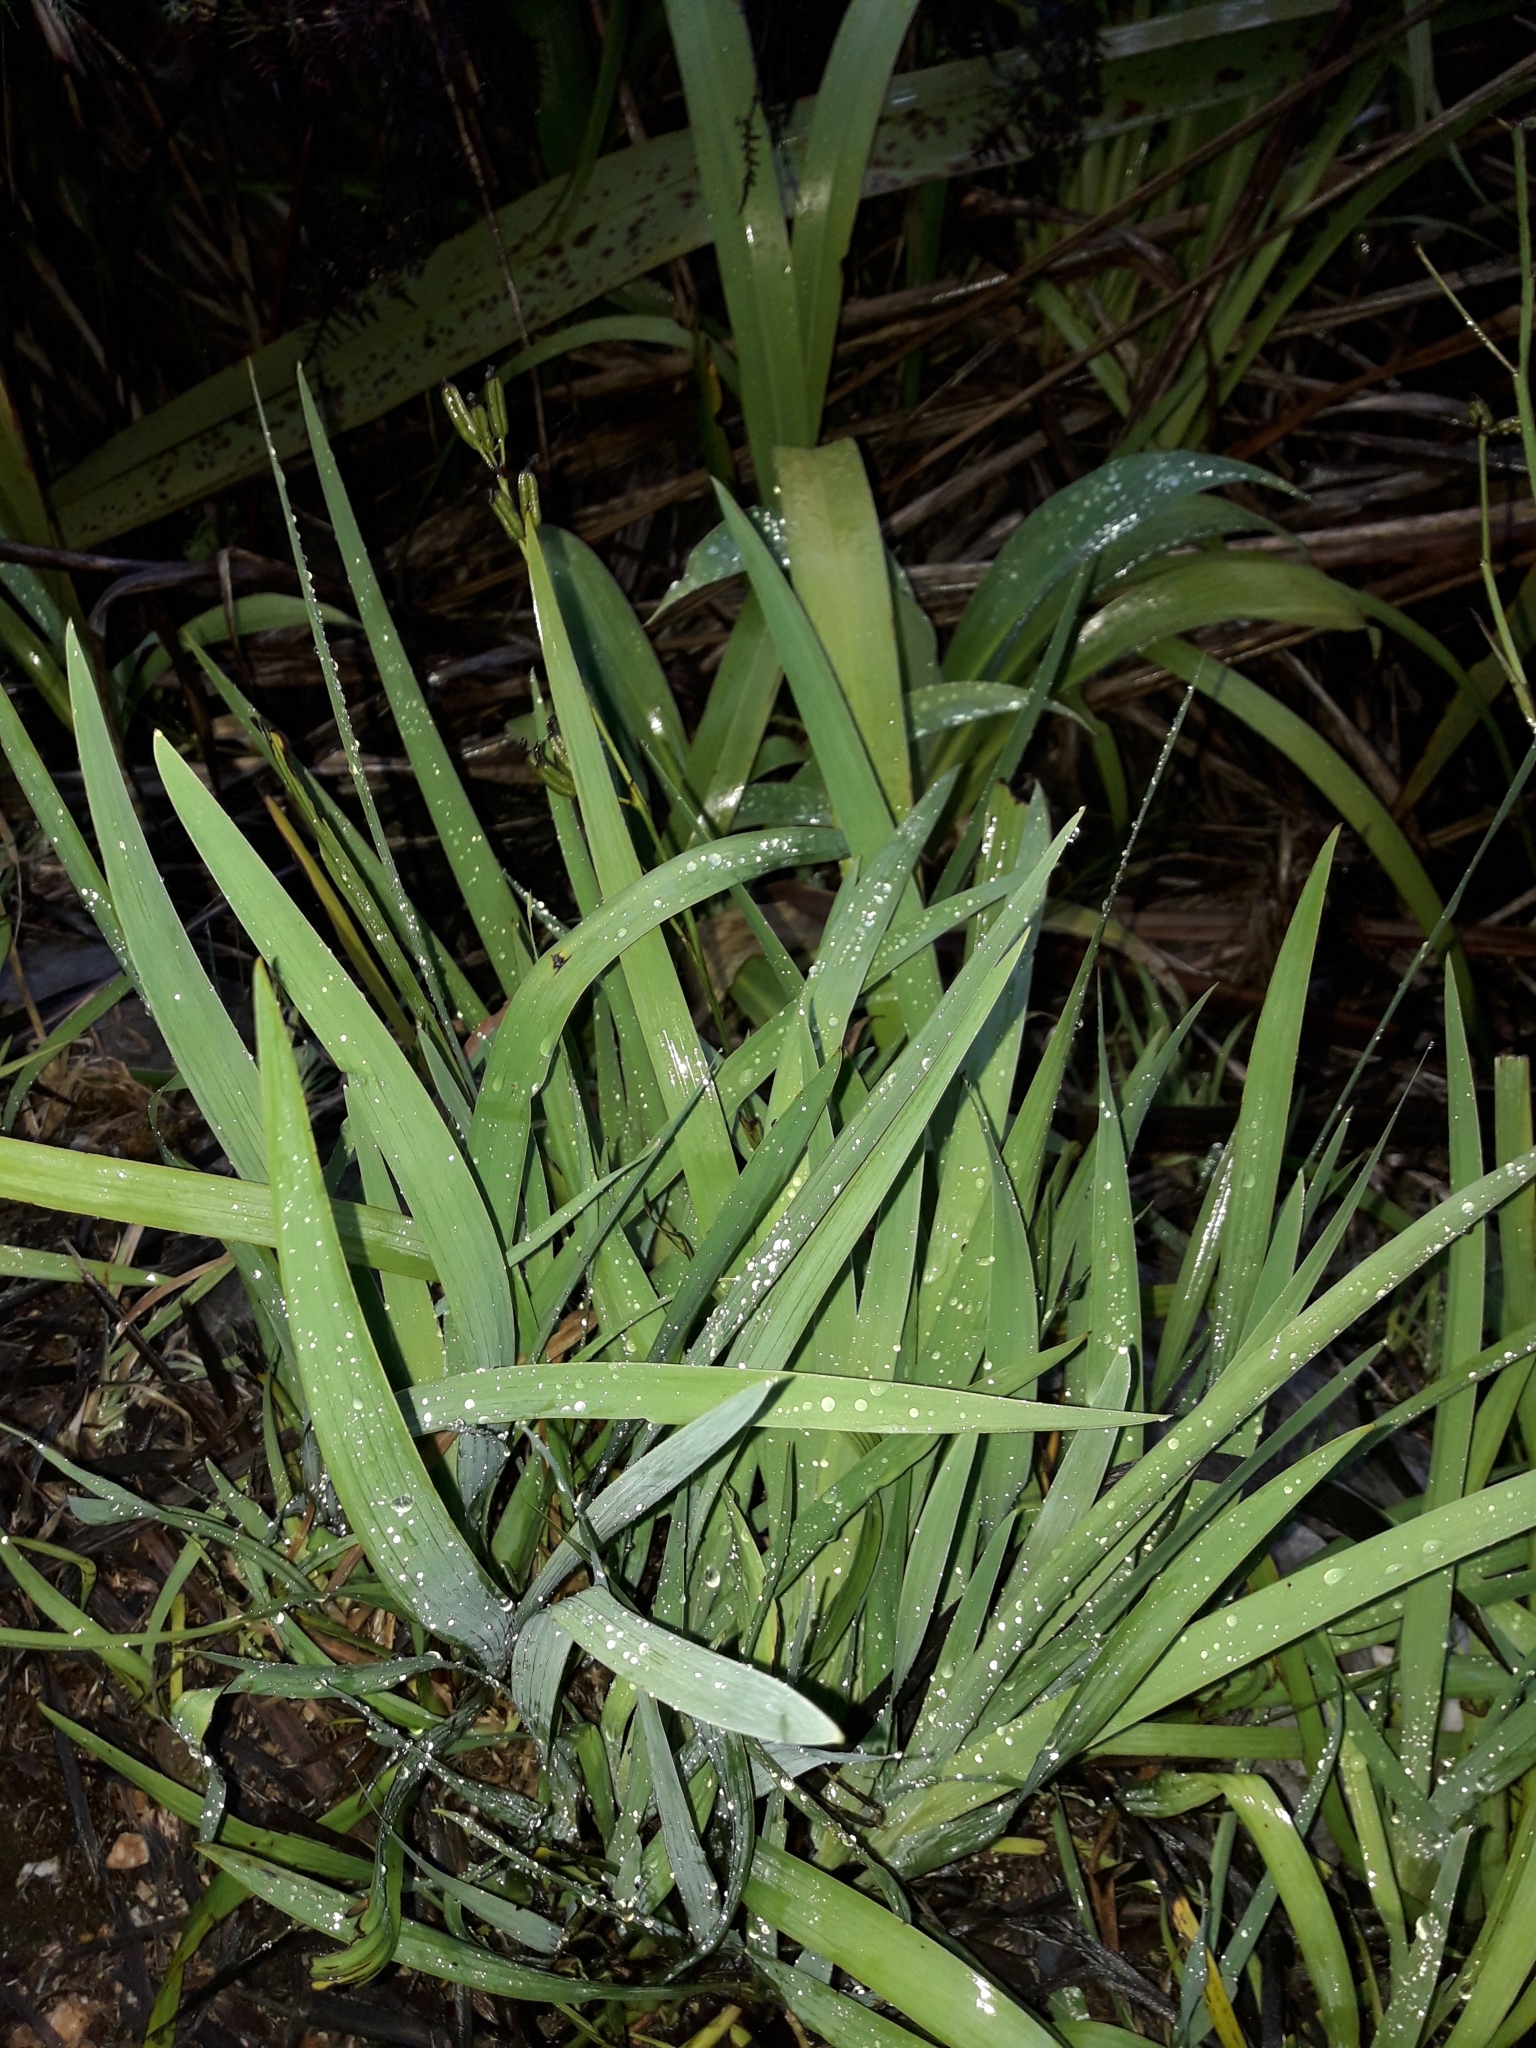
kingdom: Plantae
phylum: Tracheophyta
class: Liliopsida
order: Asparagales
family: Iridaceae
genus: Aristea
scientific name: Aristea ecklonii
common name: Blue corn-lily
